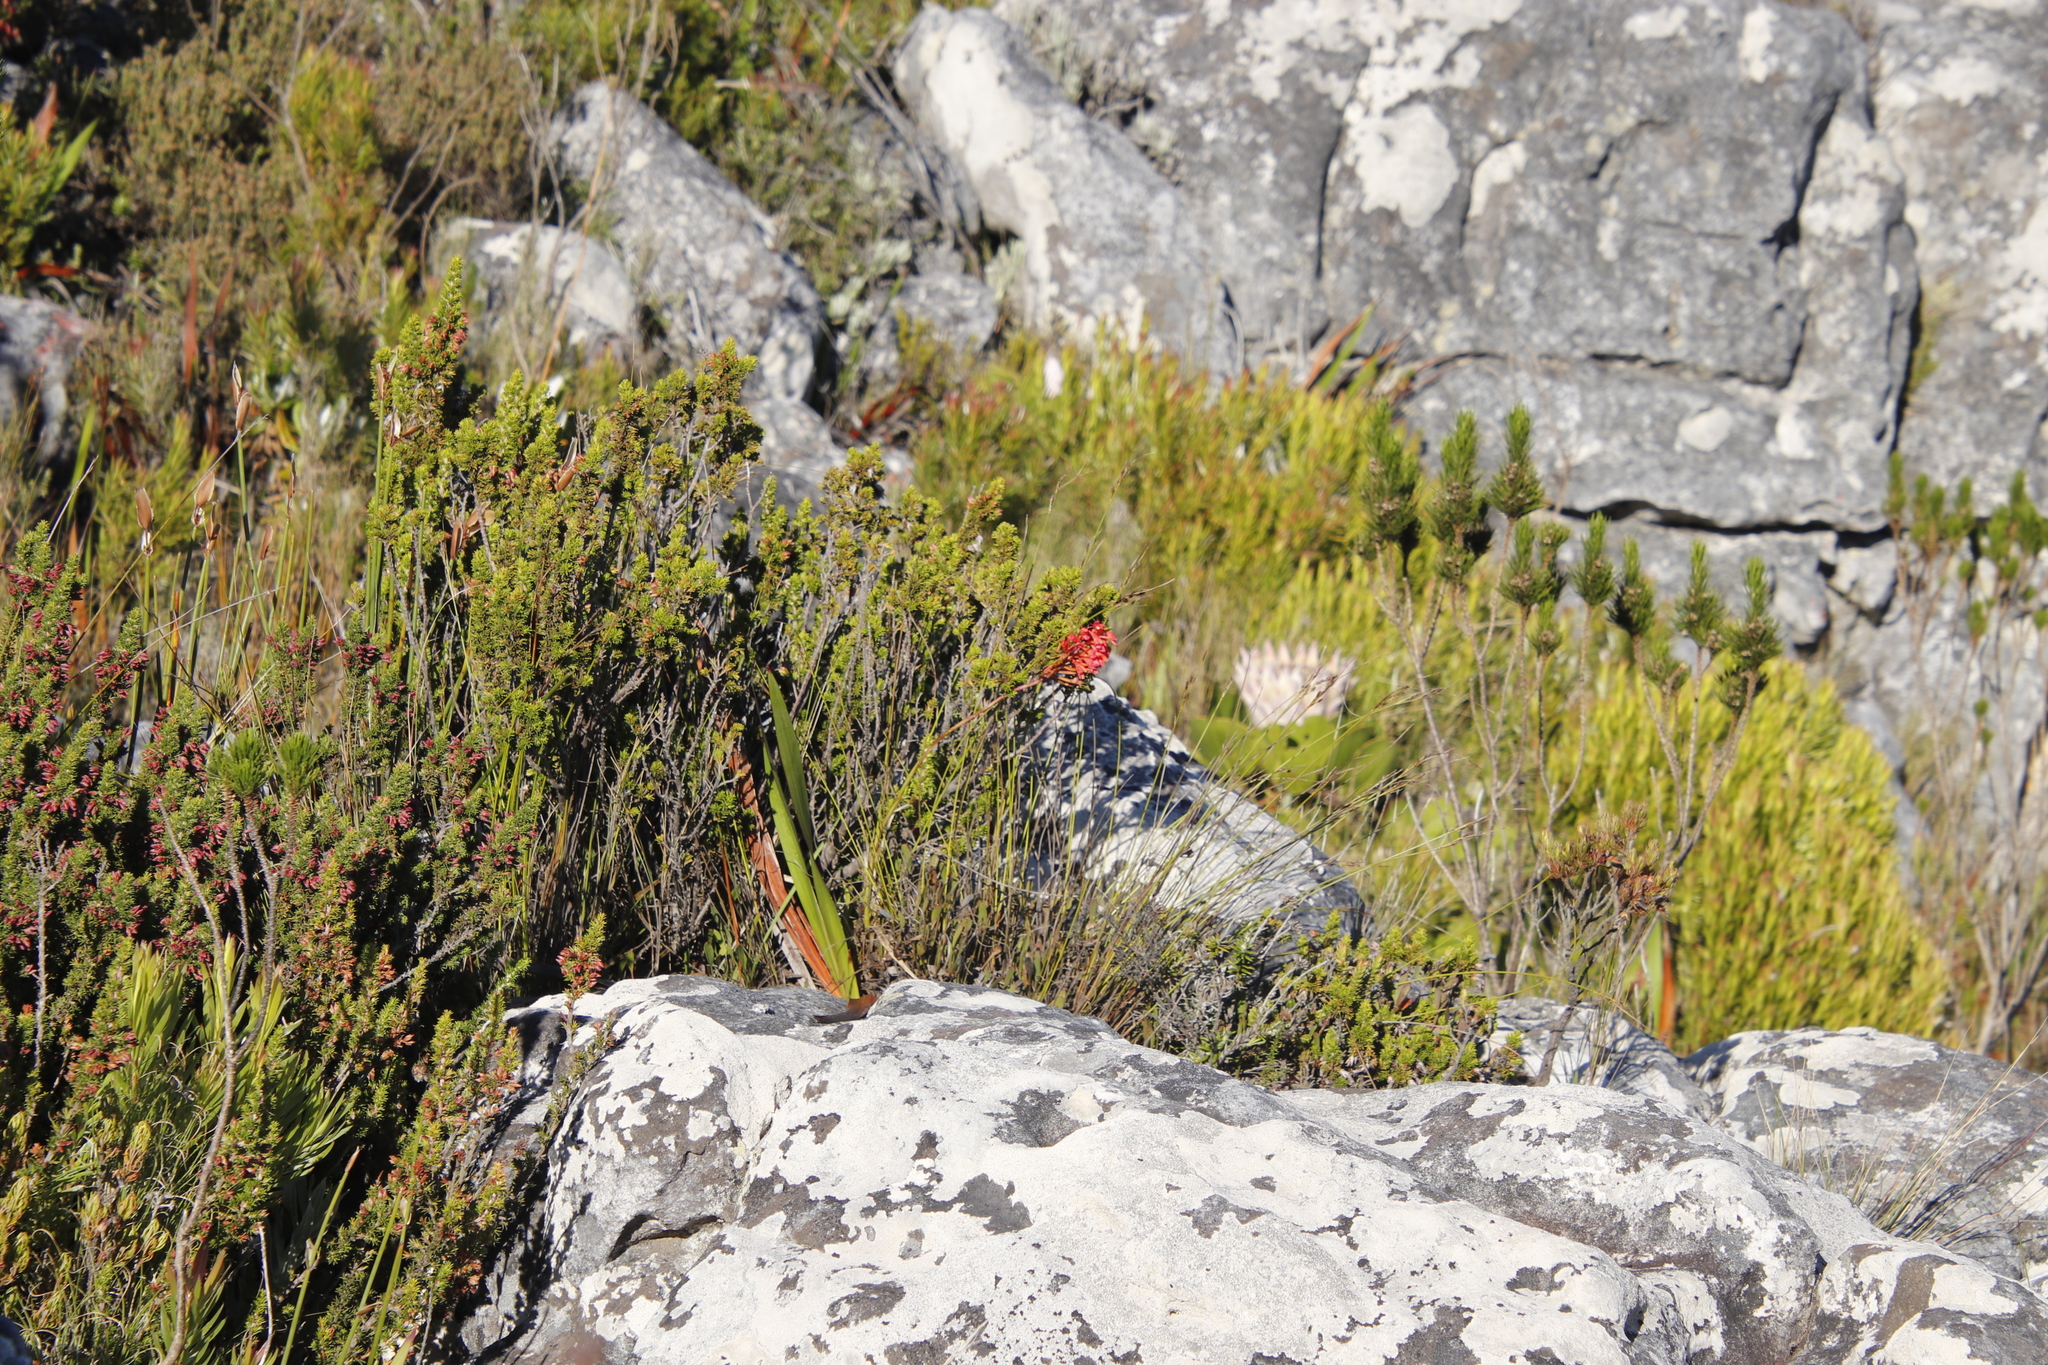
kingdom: Plantae
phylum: Tracheophyta
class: Liliopsida
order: Asparagales
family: Orchidaceae
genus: Disa
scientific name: Disa ferruginea
